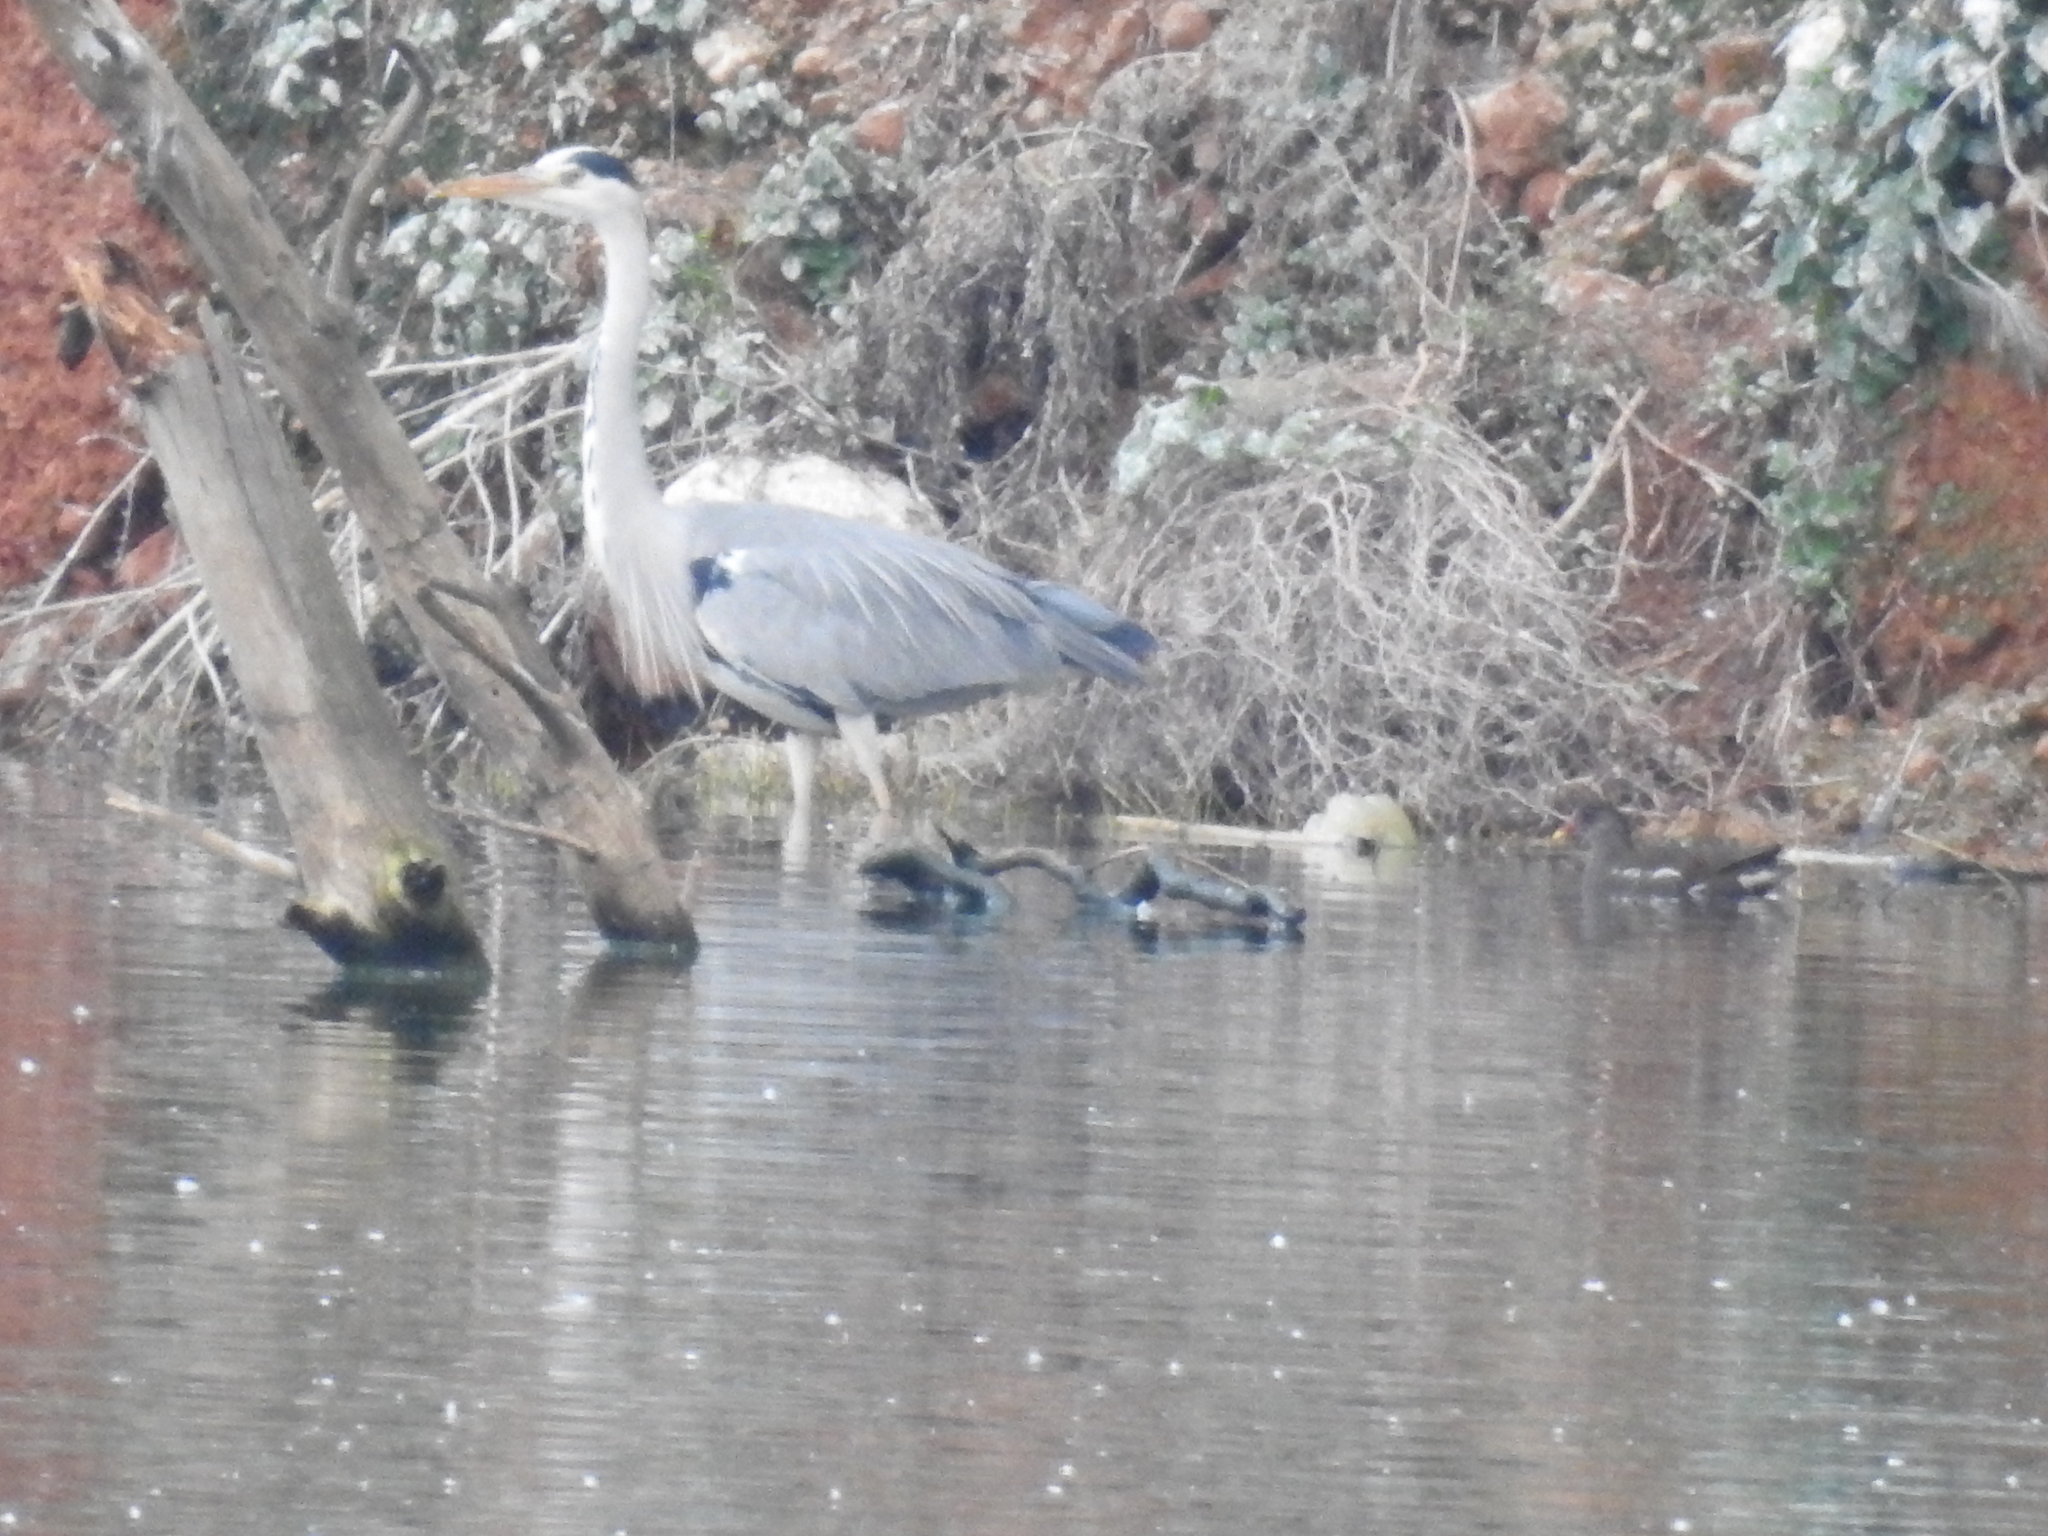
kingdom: Animalia
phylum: Chordata
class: Aves
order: Pelecaniformes
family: Ardeidae
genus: Ardea
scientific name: Ardea cinerea
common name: Grey heron
